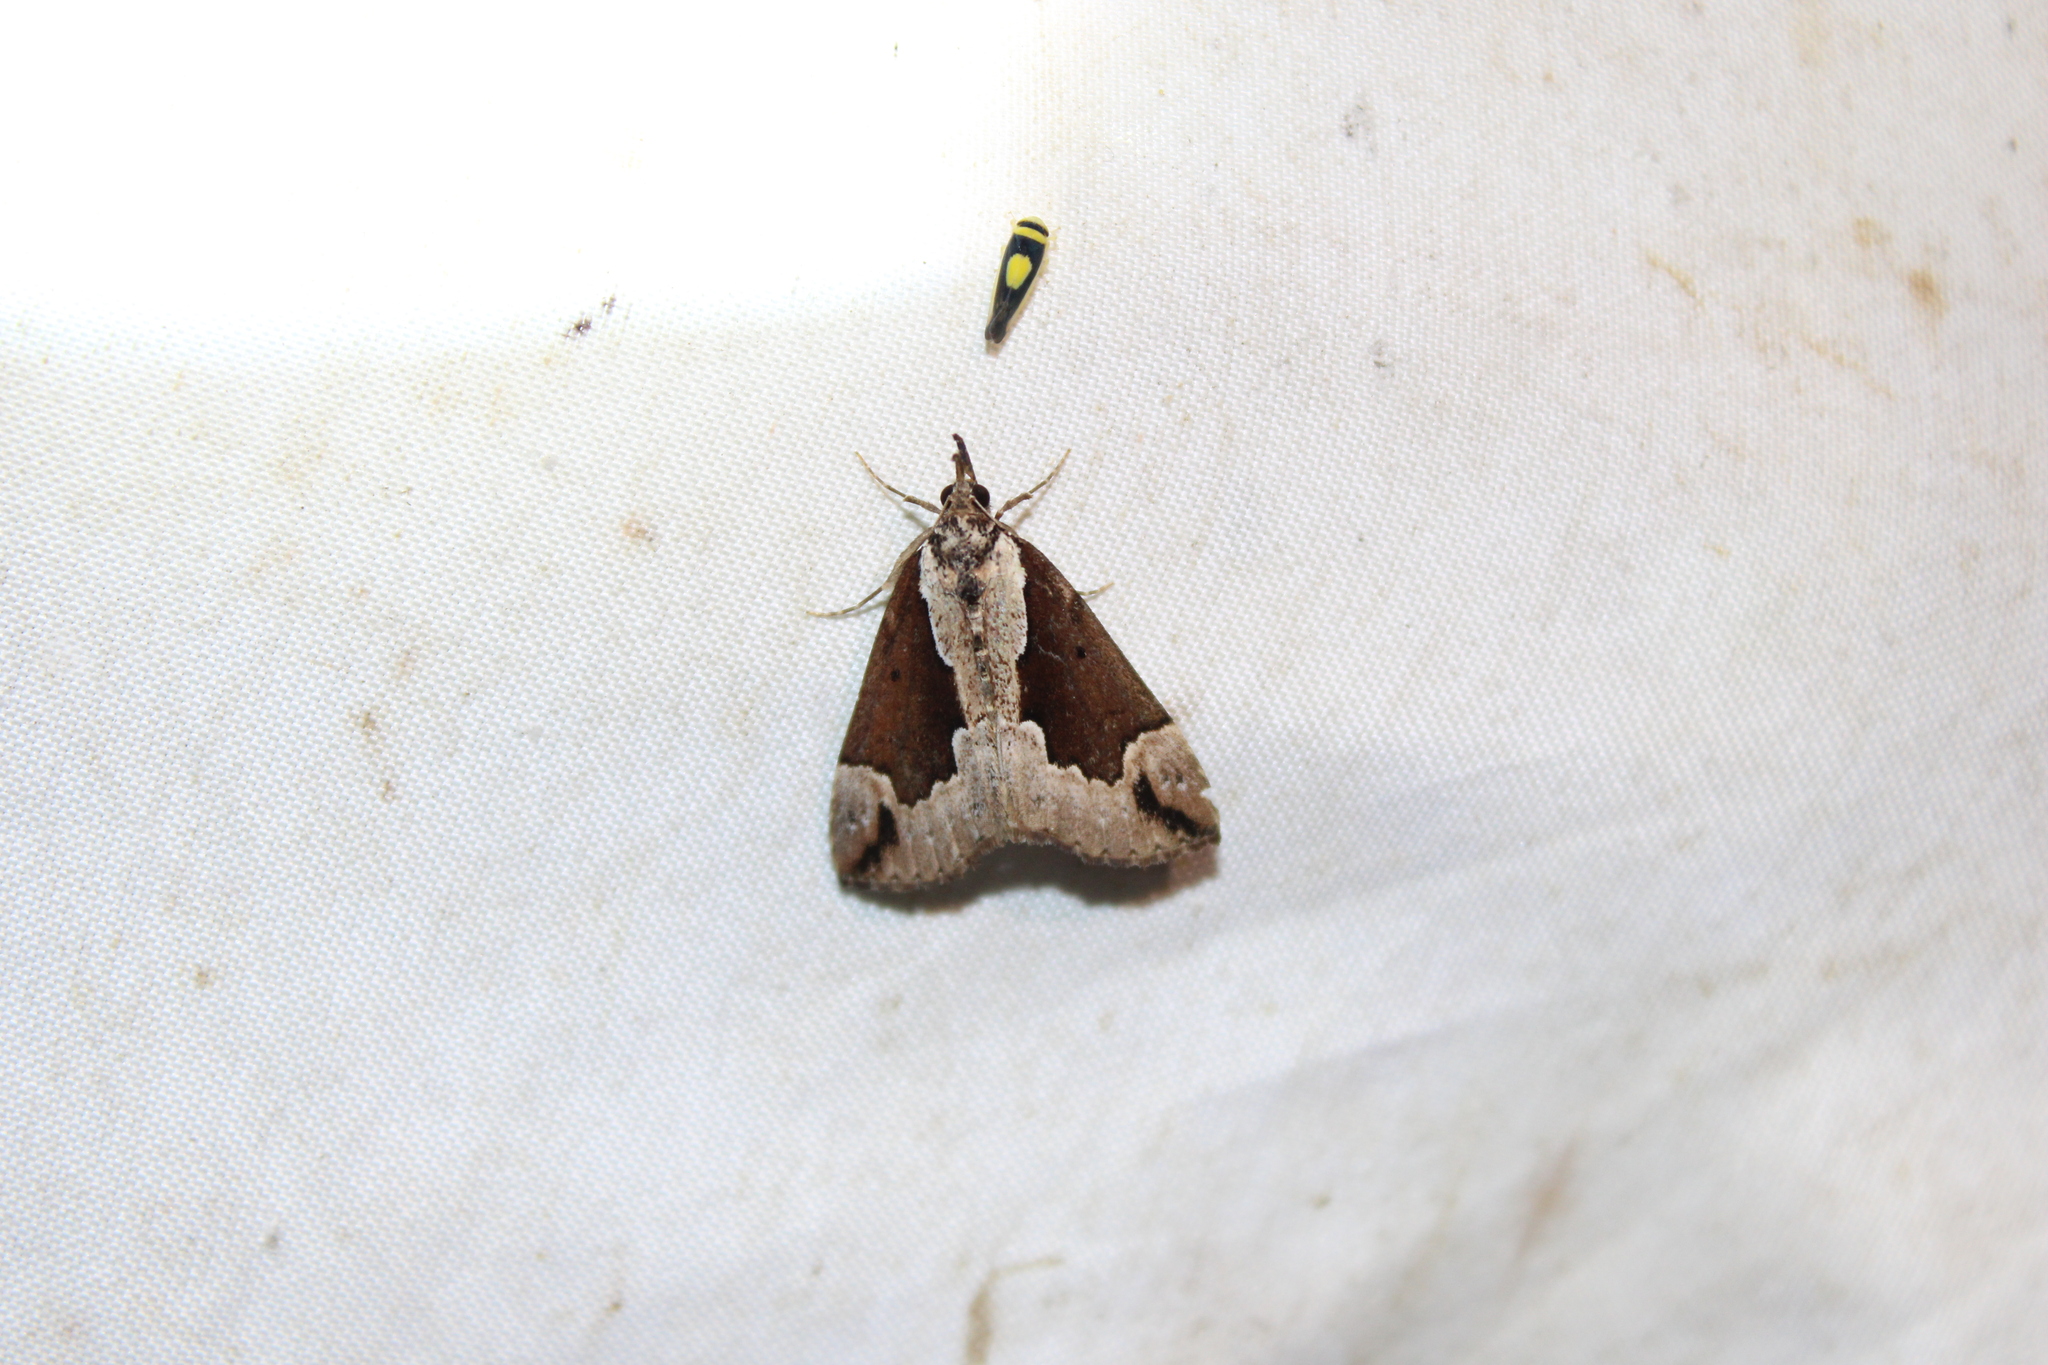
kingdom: Animalia
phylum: Arthropoda
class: Insecta
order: Lepidoptera
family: Erebidae
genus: Hypena
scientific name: Hypena baltimoralis
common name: Baltimore snout
